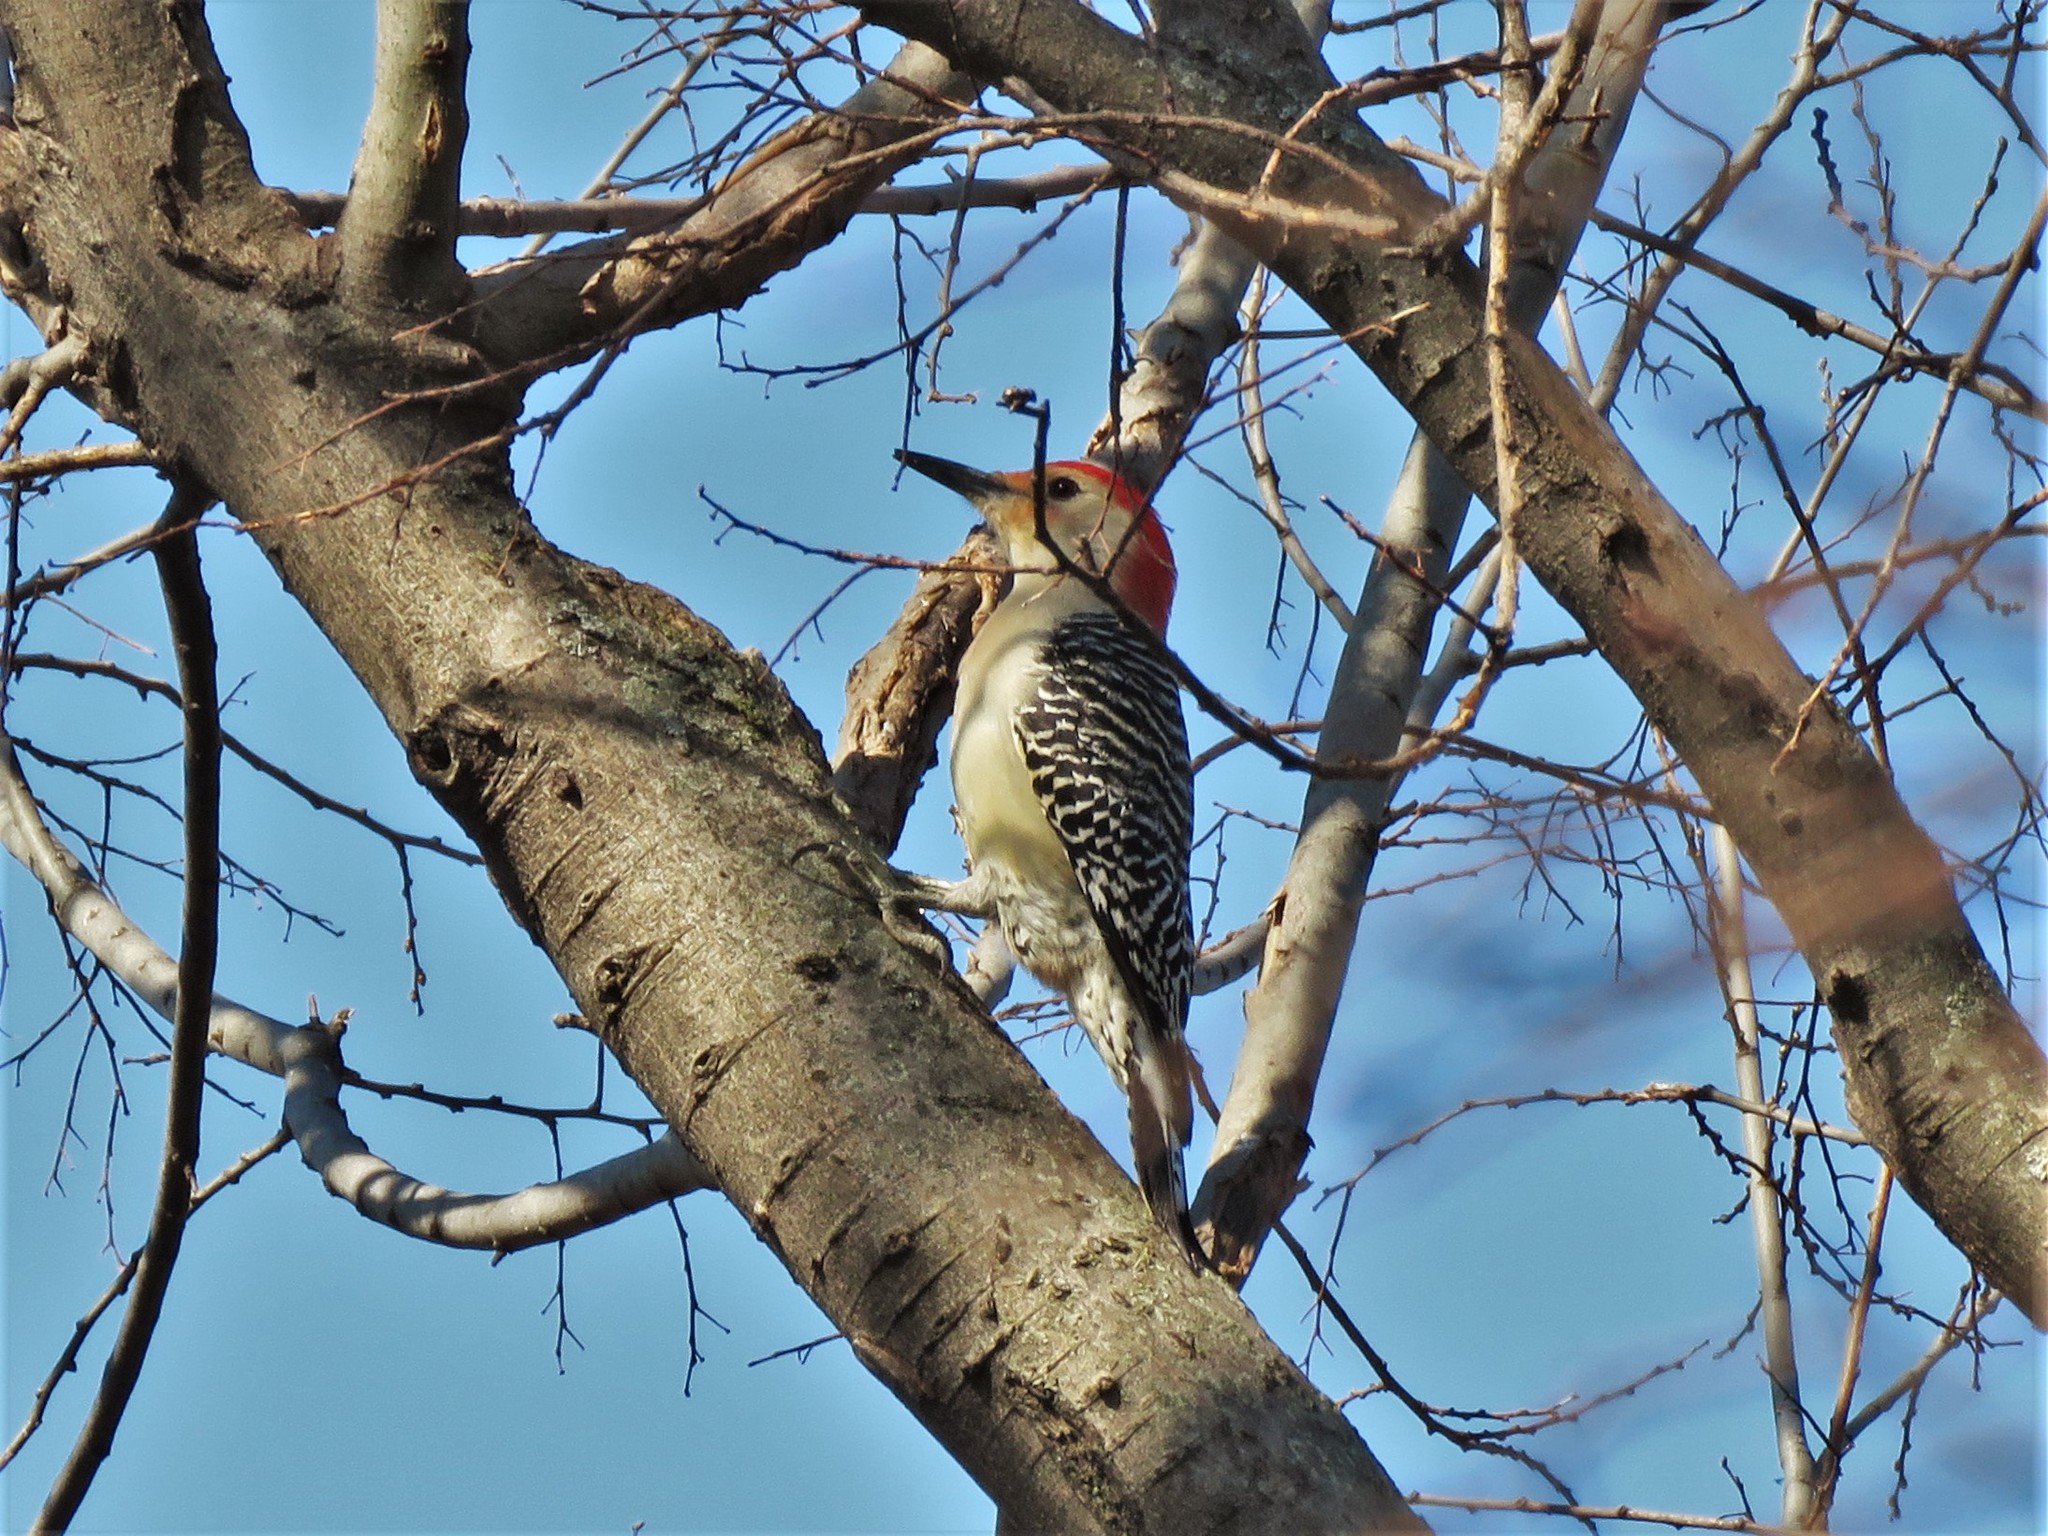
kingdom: Animalia
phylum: Chordata
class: Aves
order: Piciformes
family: Picidae
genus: Melanerpes
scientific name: Melanerpes carolinus
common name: Red-bellied woodpecker
